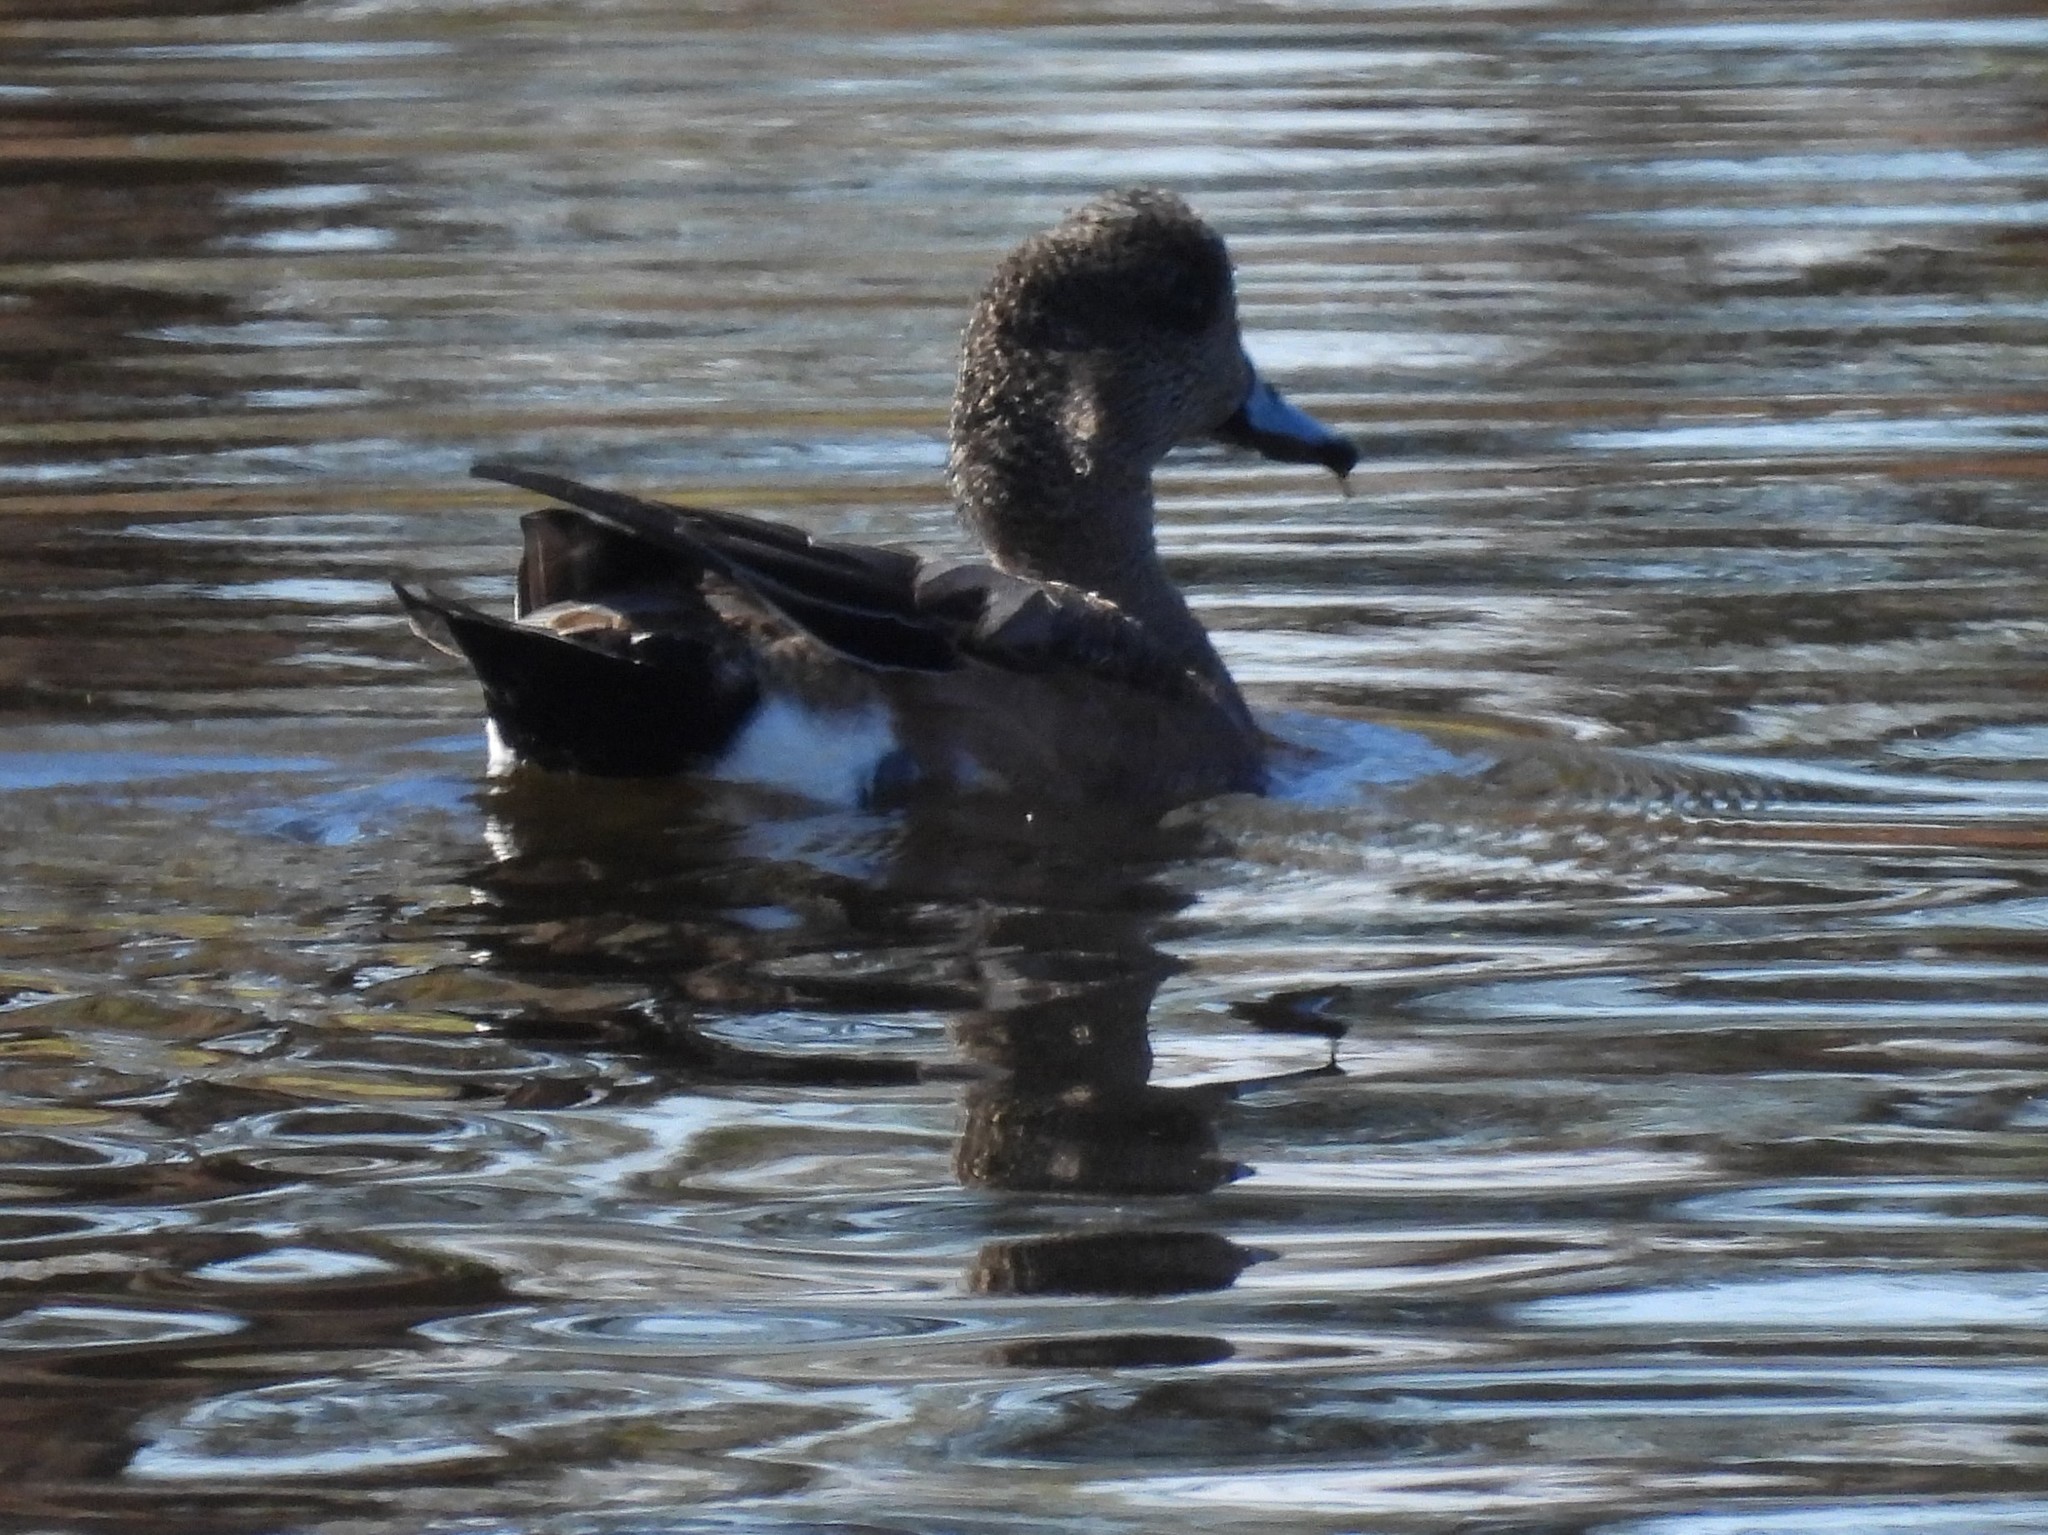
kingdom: Animalia
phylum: Chordata
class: Aves
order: Anseriformes
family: Anatidae
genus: Mareca
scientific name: Mareca americana
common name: American wigeon
